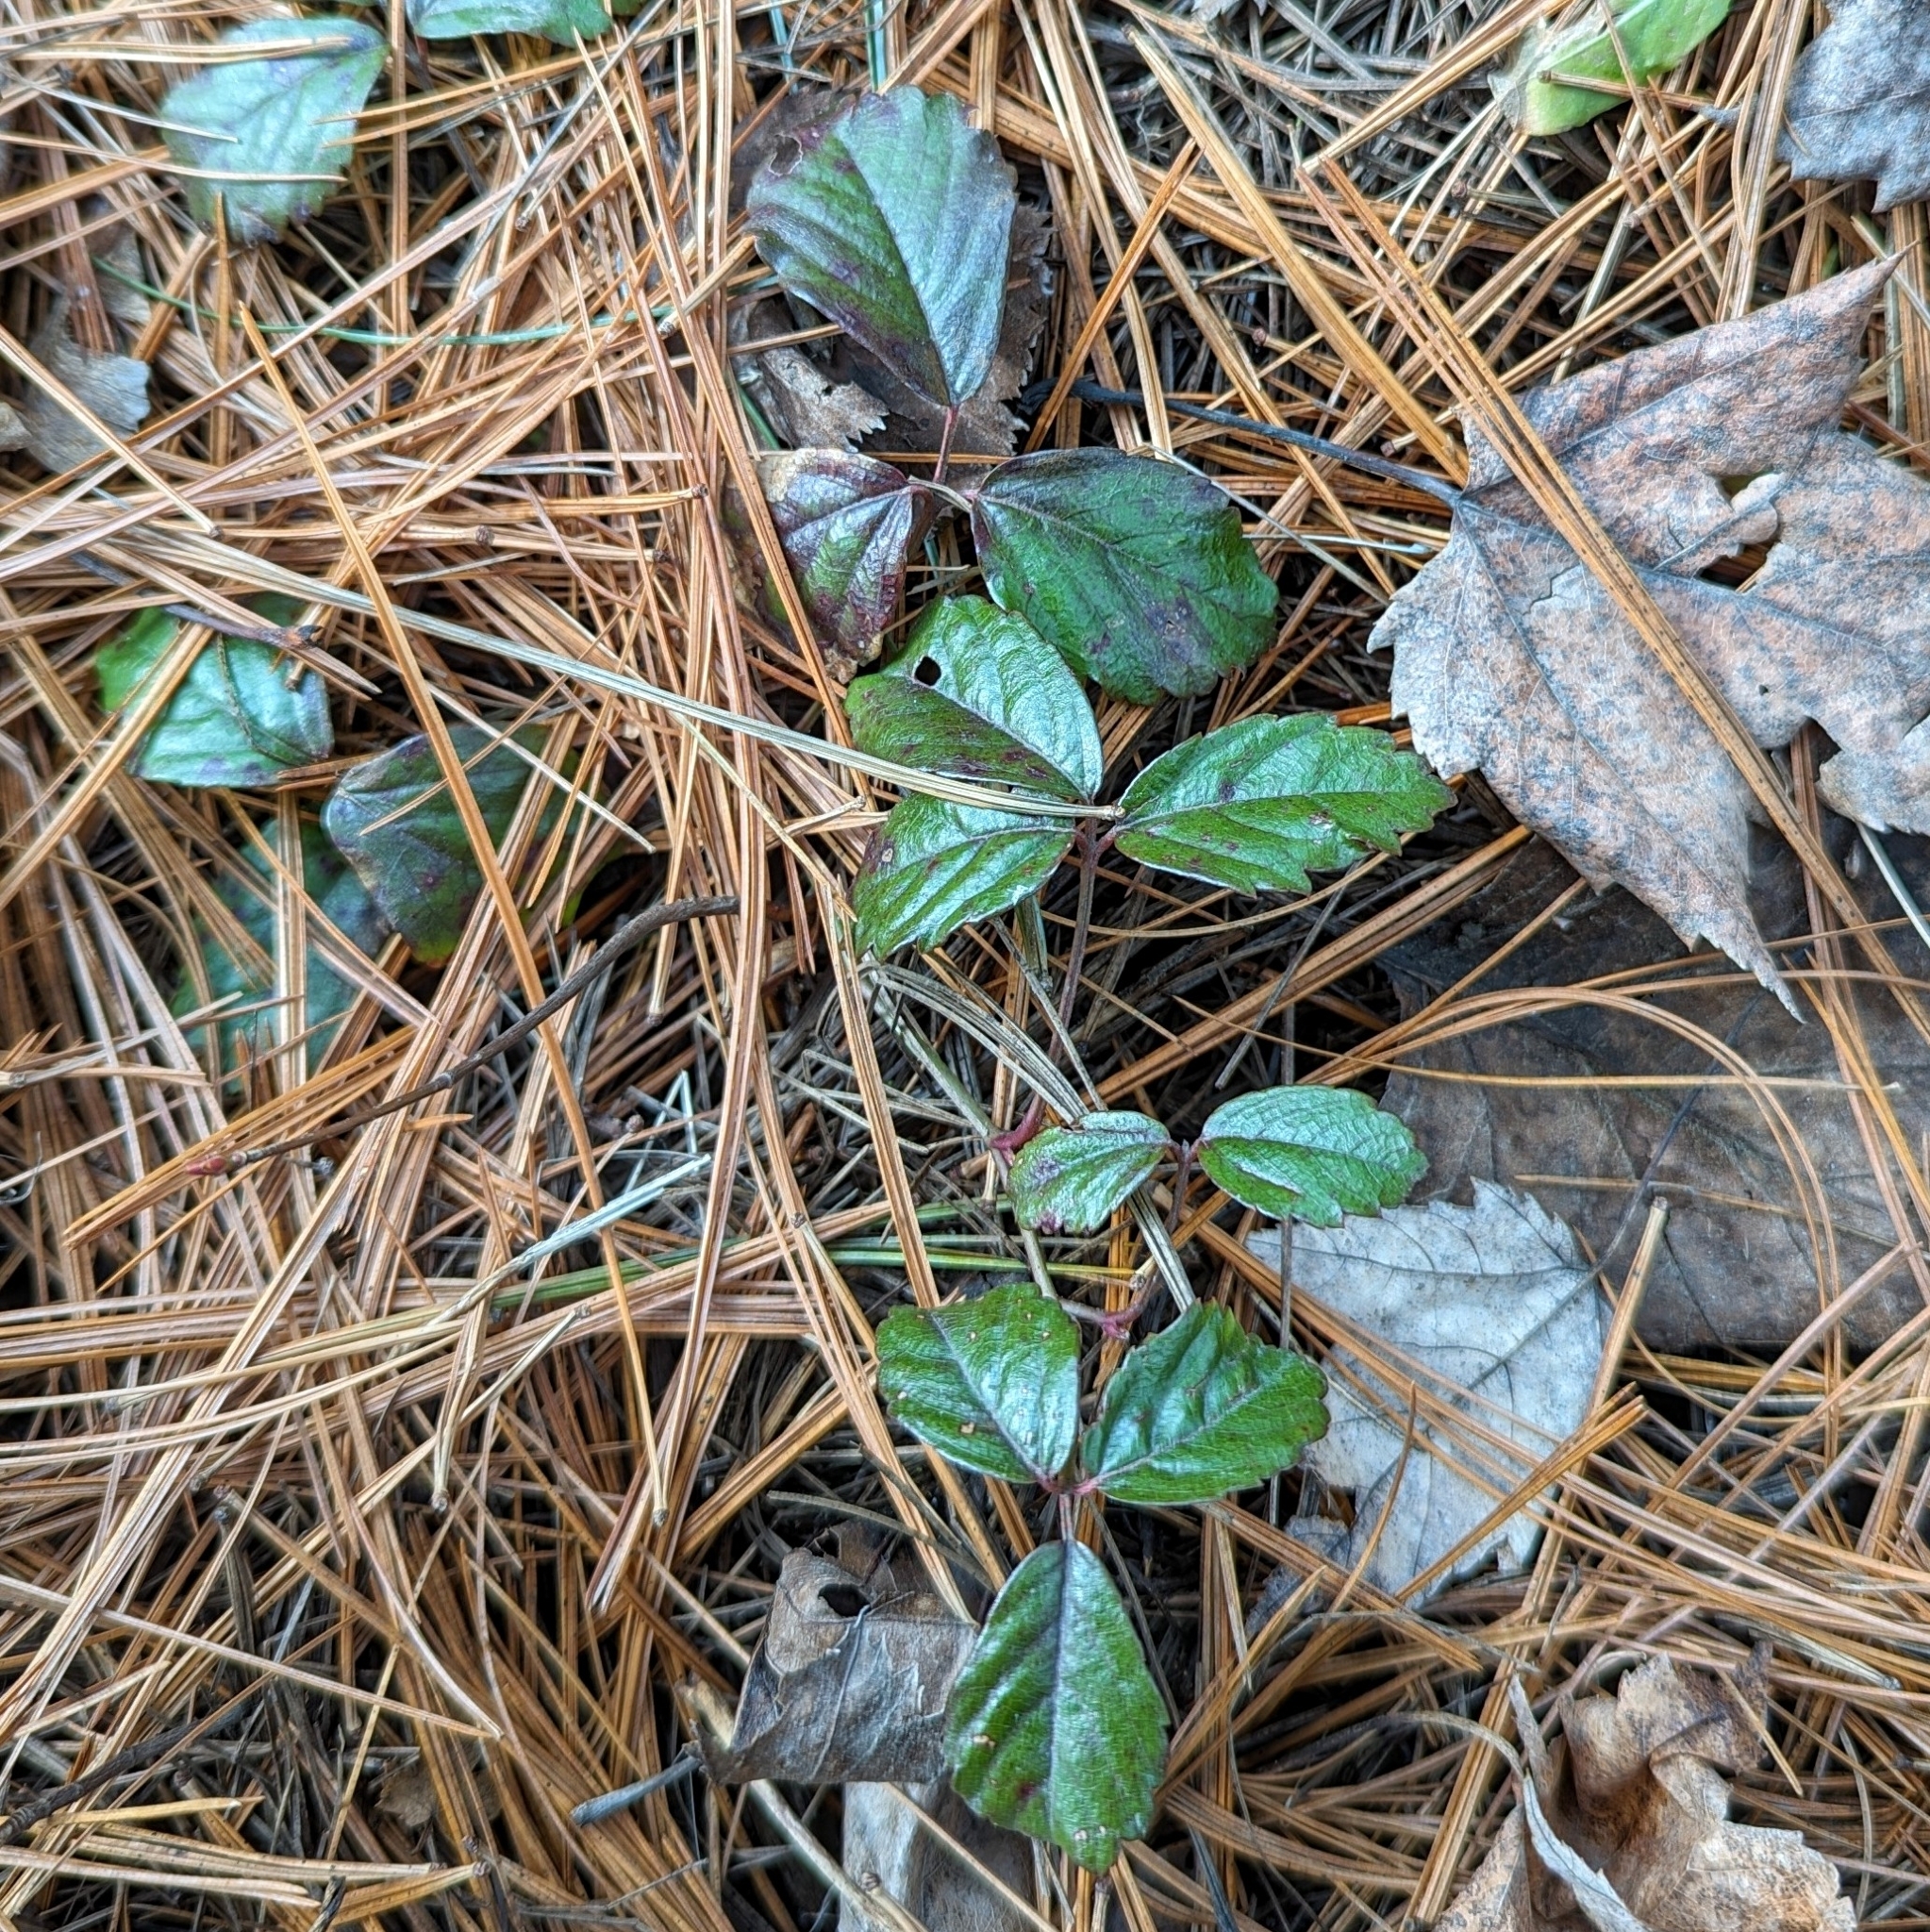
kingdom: Plantae
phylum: Tracheophyta
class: Magnoliopsida
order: Rosales
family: Rosaceae
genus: Rubus
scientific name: Rubus
